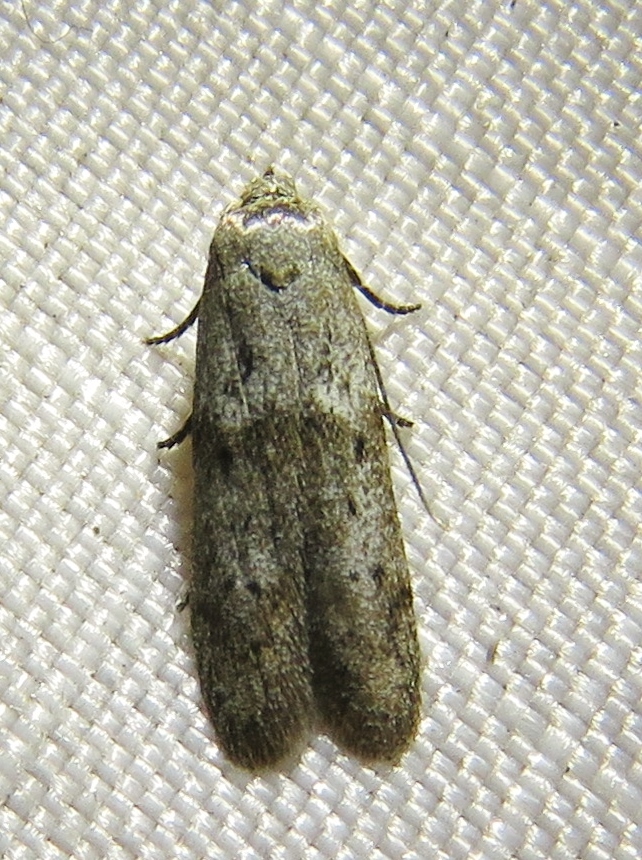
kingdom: Animalia
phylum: Arthropoda
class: Insecta
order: Lepidoptera
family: Blastobasidae
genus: Blastobasis
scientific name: Blastobasis glandulella
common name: Acorn moth
